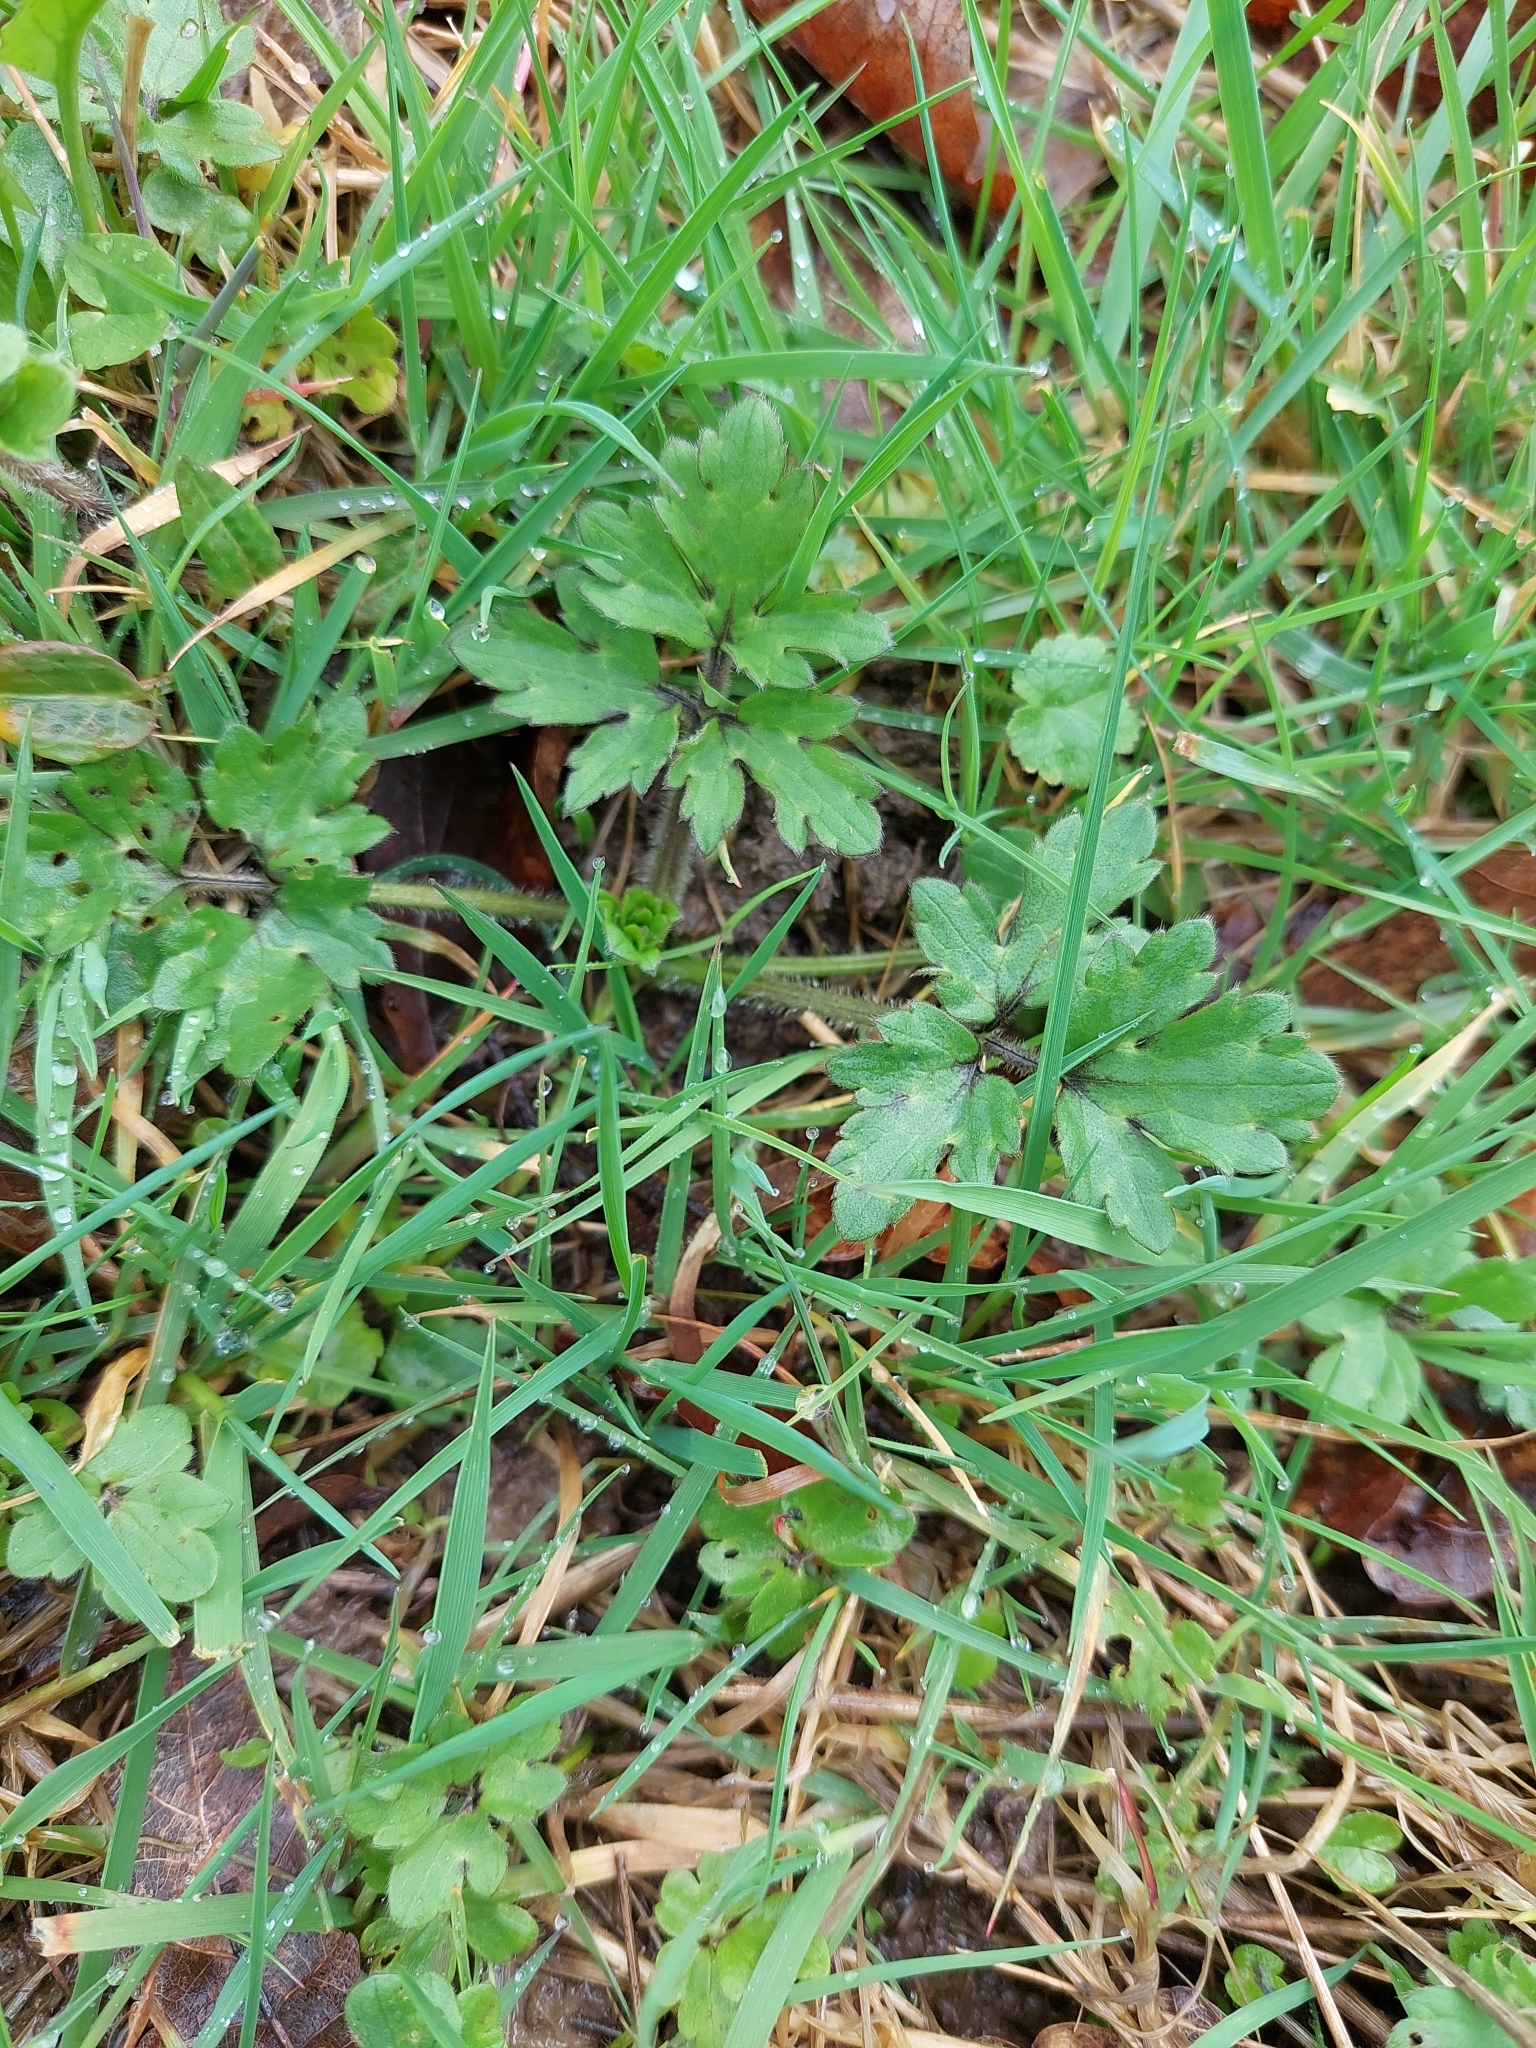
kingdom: Plantae
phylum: Tracheophyta
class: Magnoliopsida
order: Ranunculales
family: Ranunculaceae
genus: Ranunculus
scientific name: Ranunculus repens
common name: Creeping buttercup
